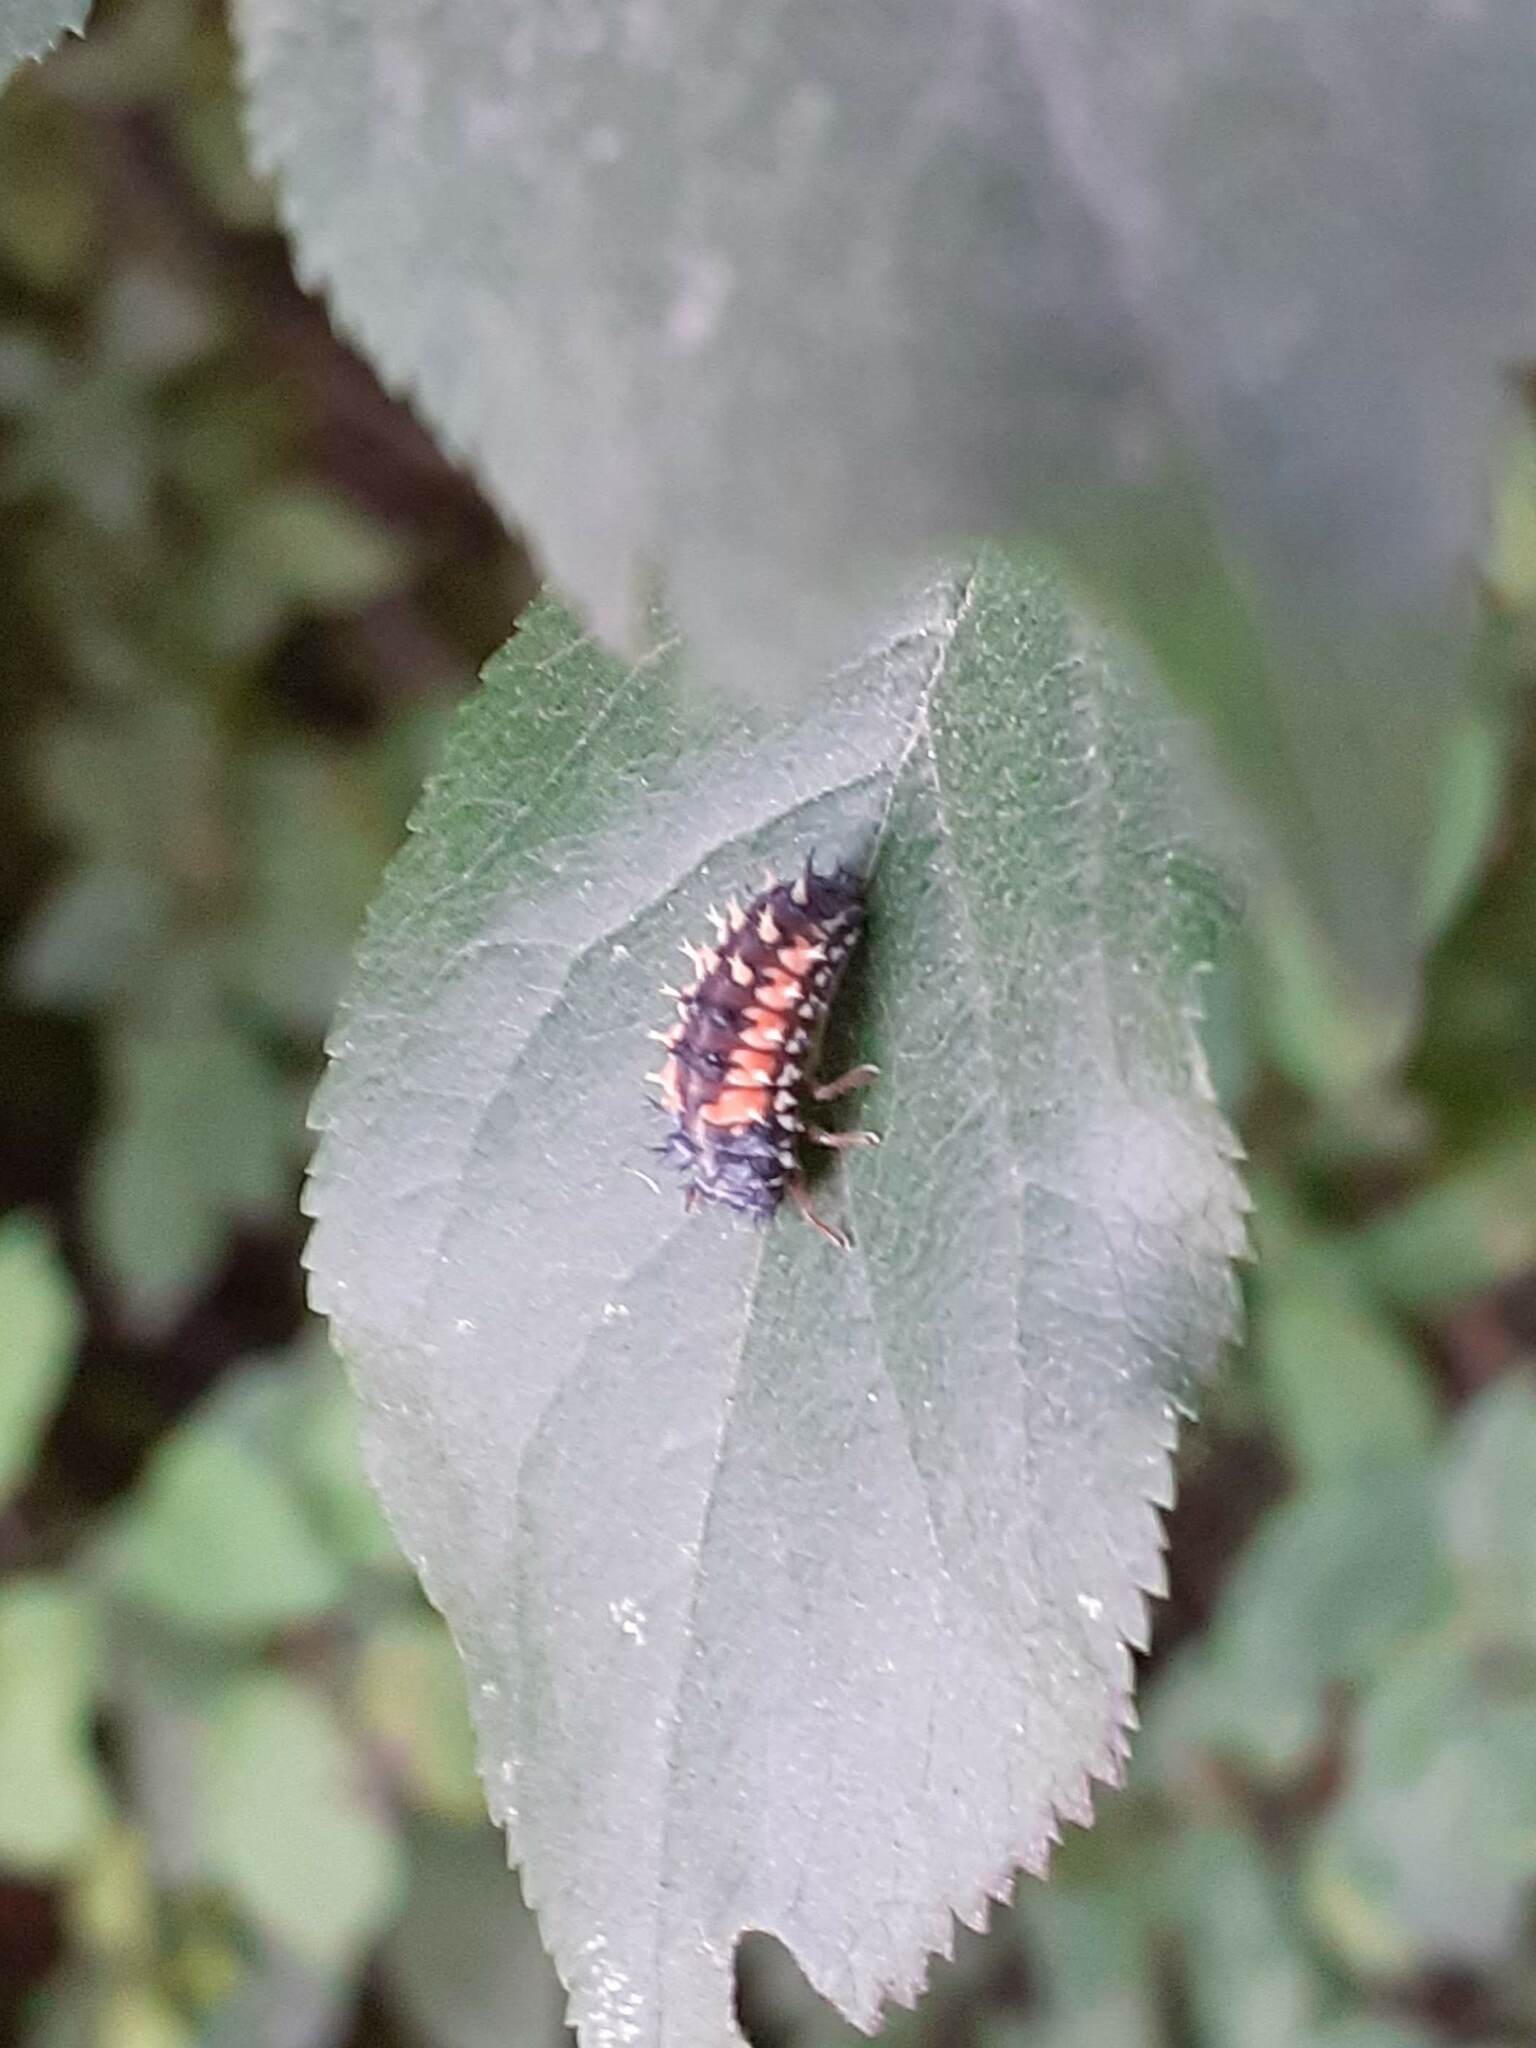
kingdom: Animalia
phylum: Arthropoda
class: Insecta
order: Coleoptera
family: Coccinellidae
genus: Harmonia
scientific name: Harmonia axyridis
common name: Harlequin ladybird
